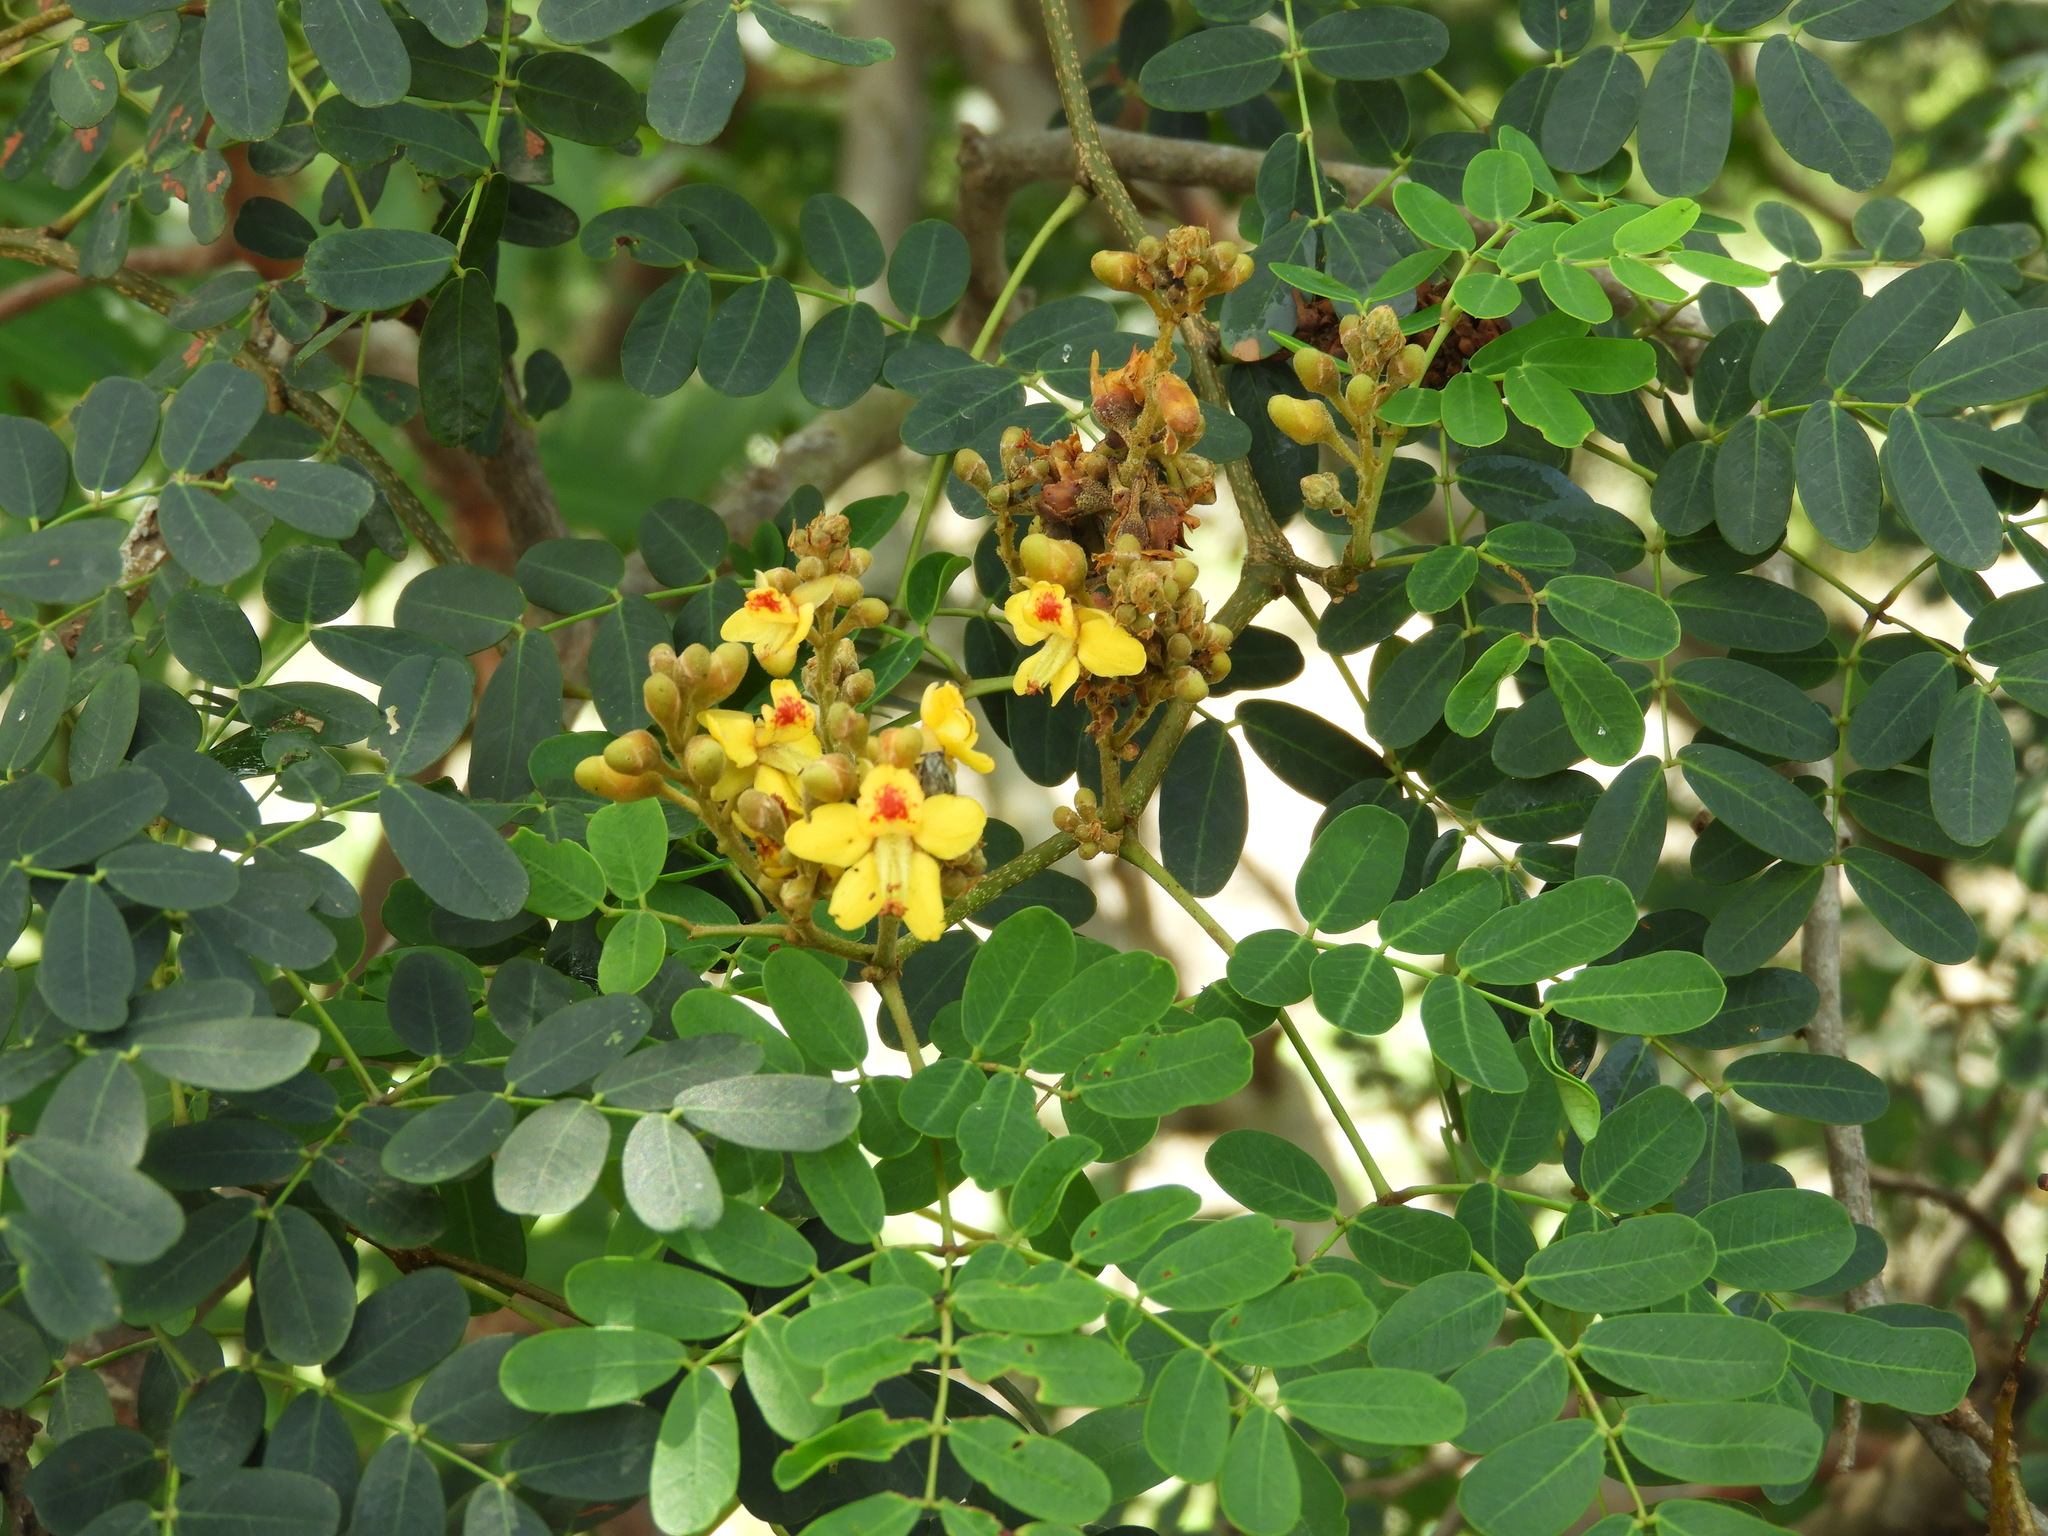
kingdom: Plantae
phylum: Tracheophyta
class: Magnoliopsida
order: Fabales
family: Fabaceae
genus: Libidibia
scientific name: Libidibia sclerocarpa
